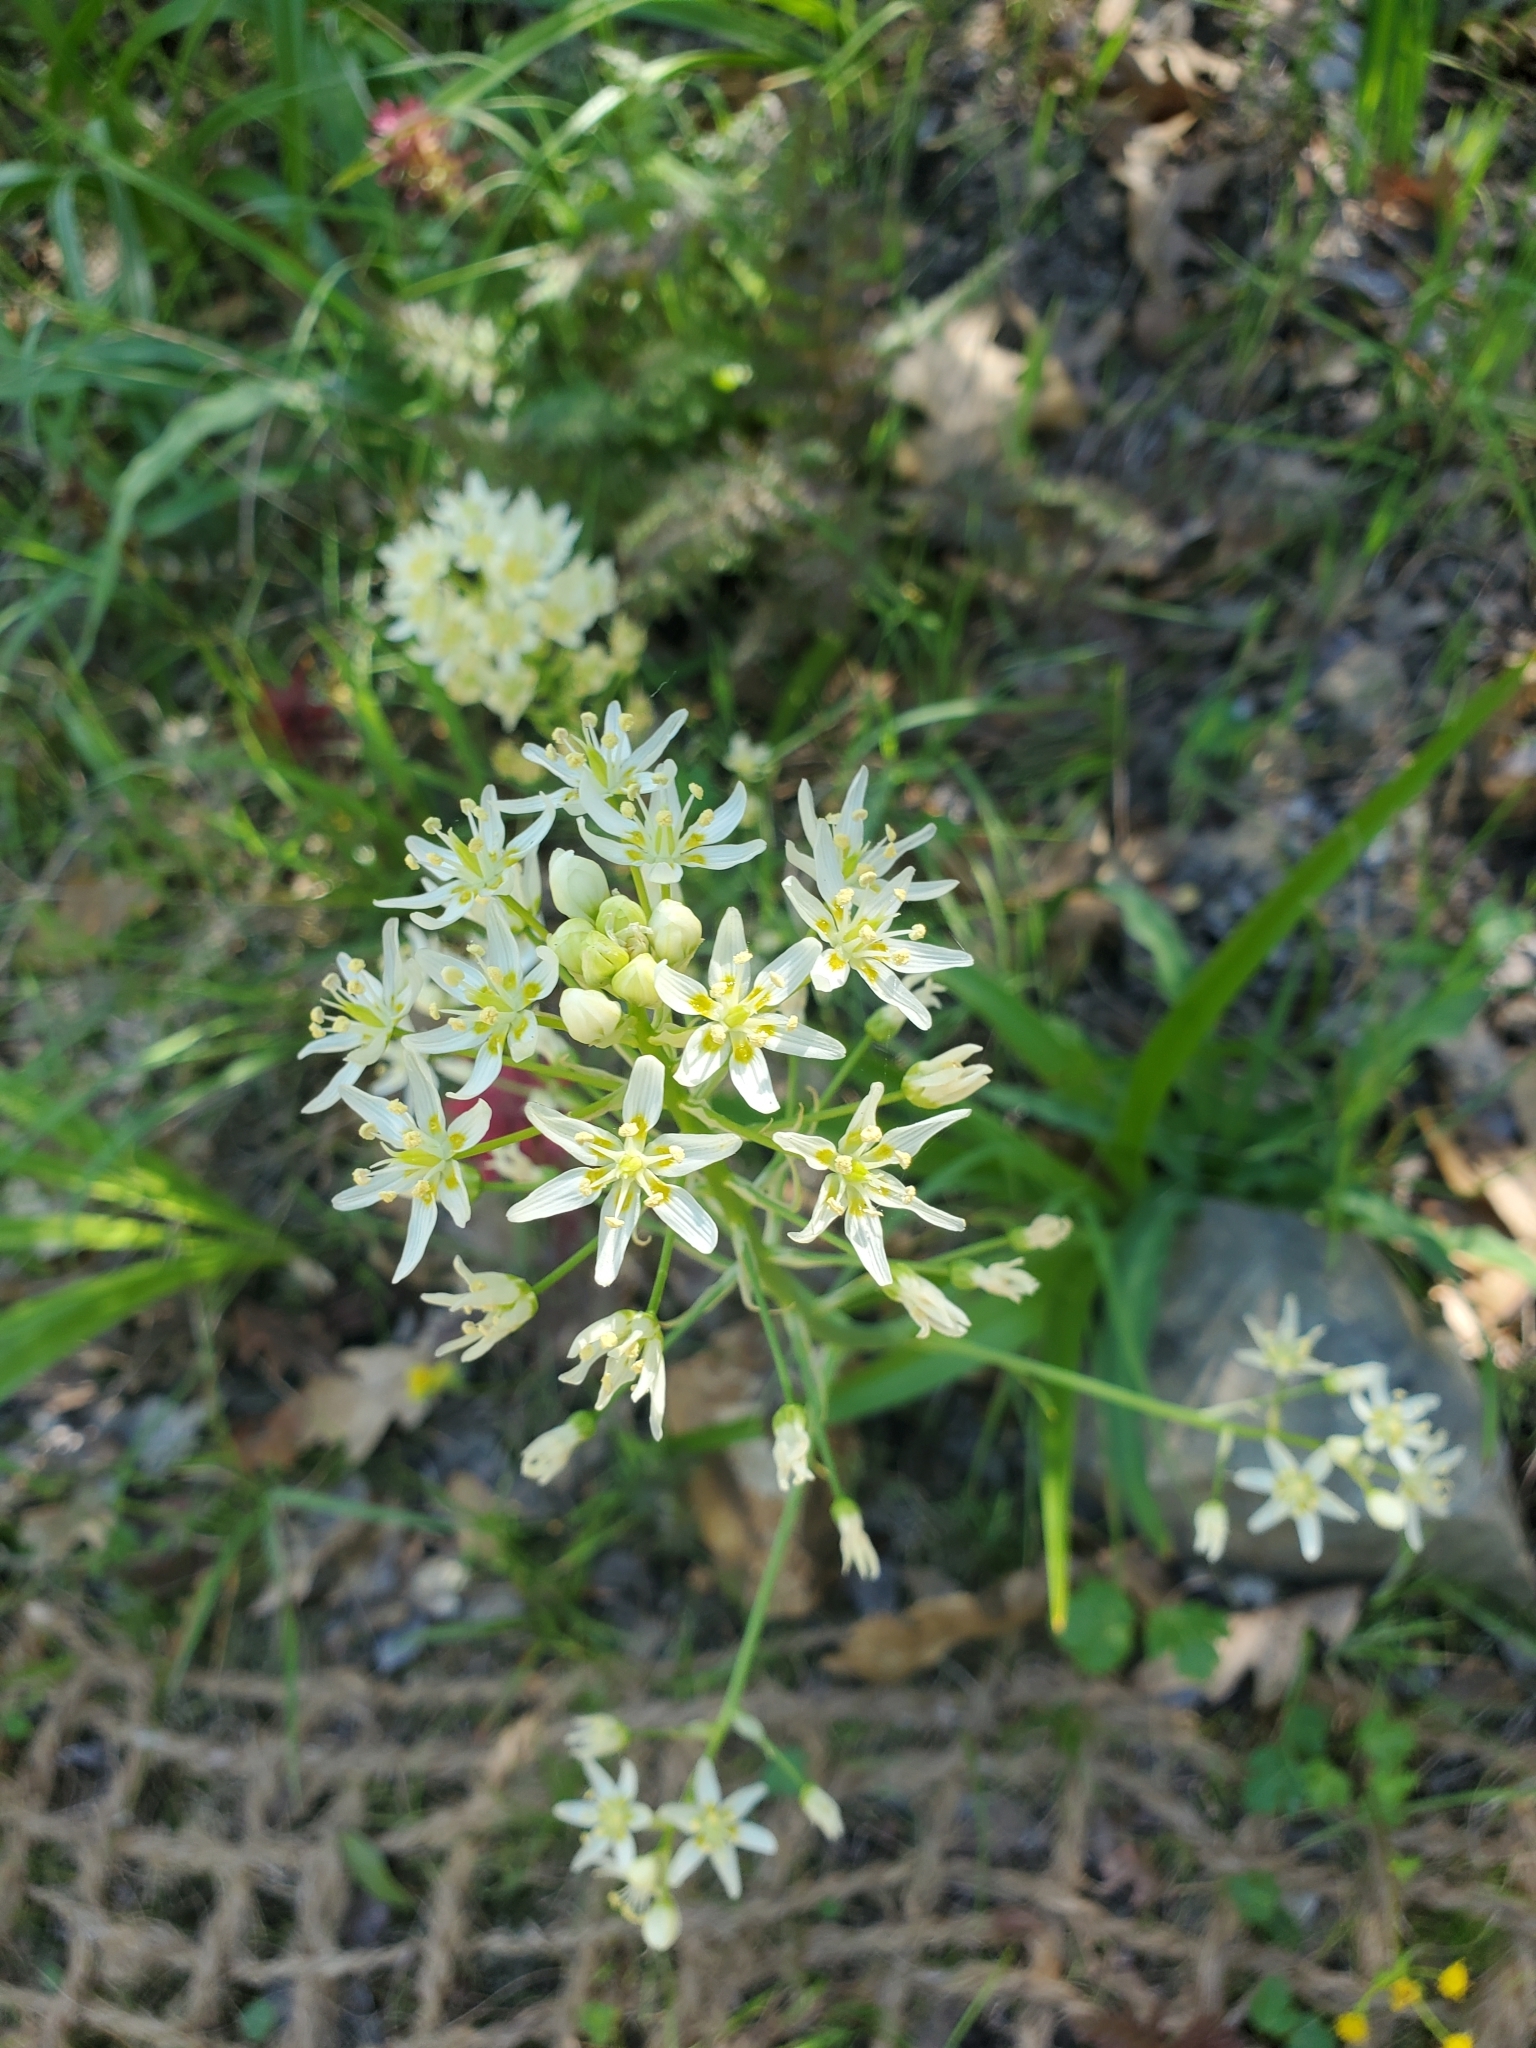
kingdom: Plantae
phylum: Tracheophyta
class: Liliopsida
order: Liliales
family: Melanthiaceae
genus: Toxicoscordion
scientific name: Toxicoscordion fremontii
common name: Fremont's death camas
